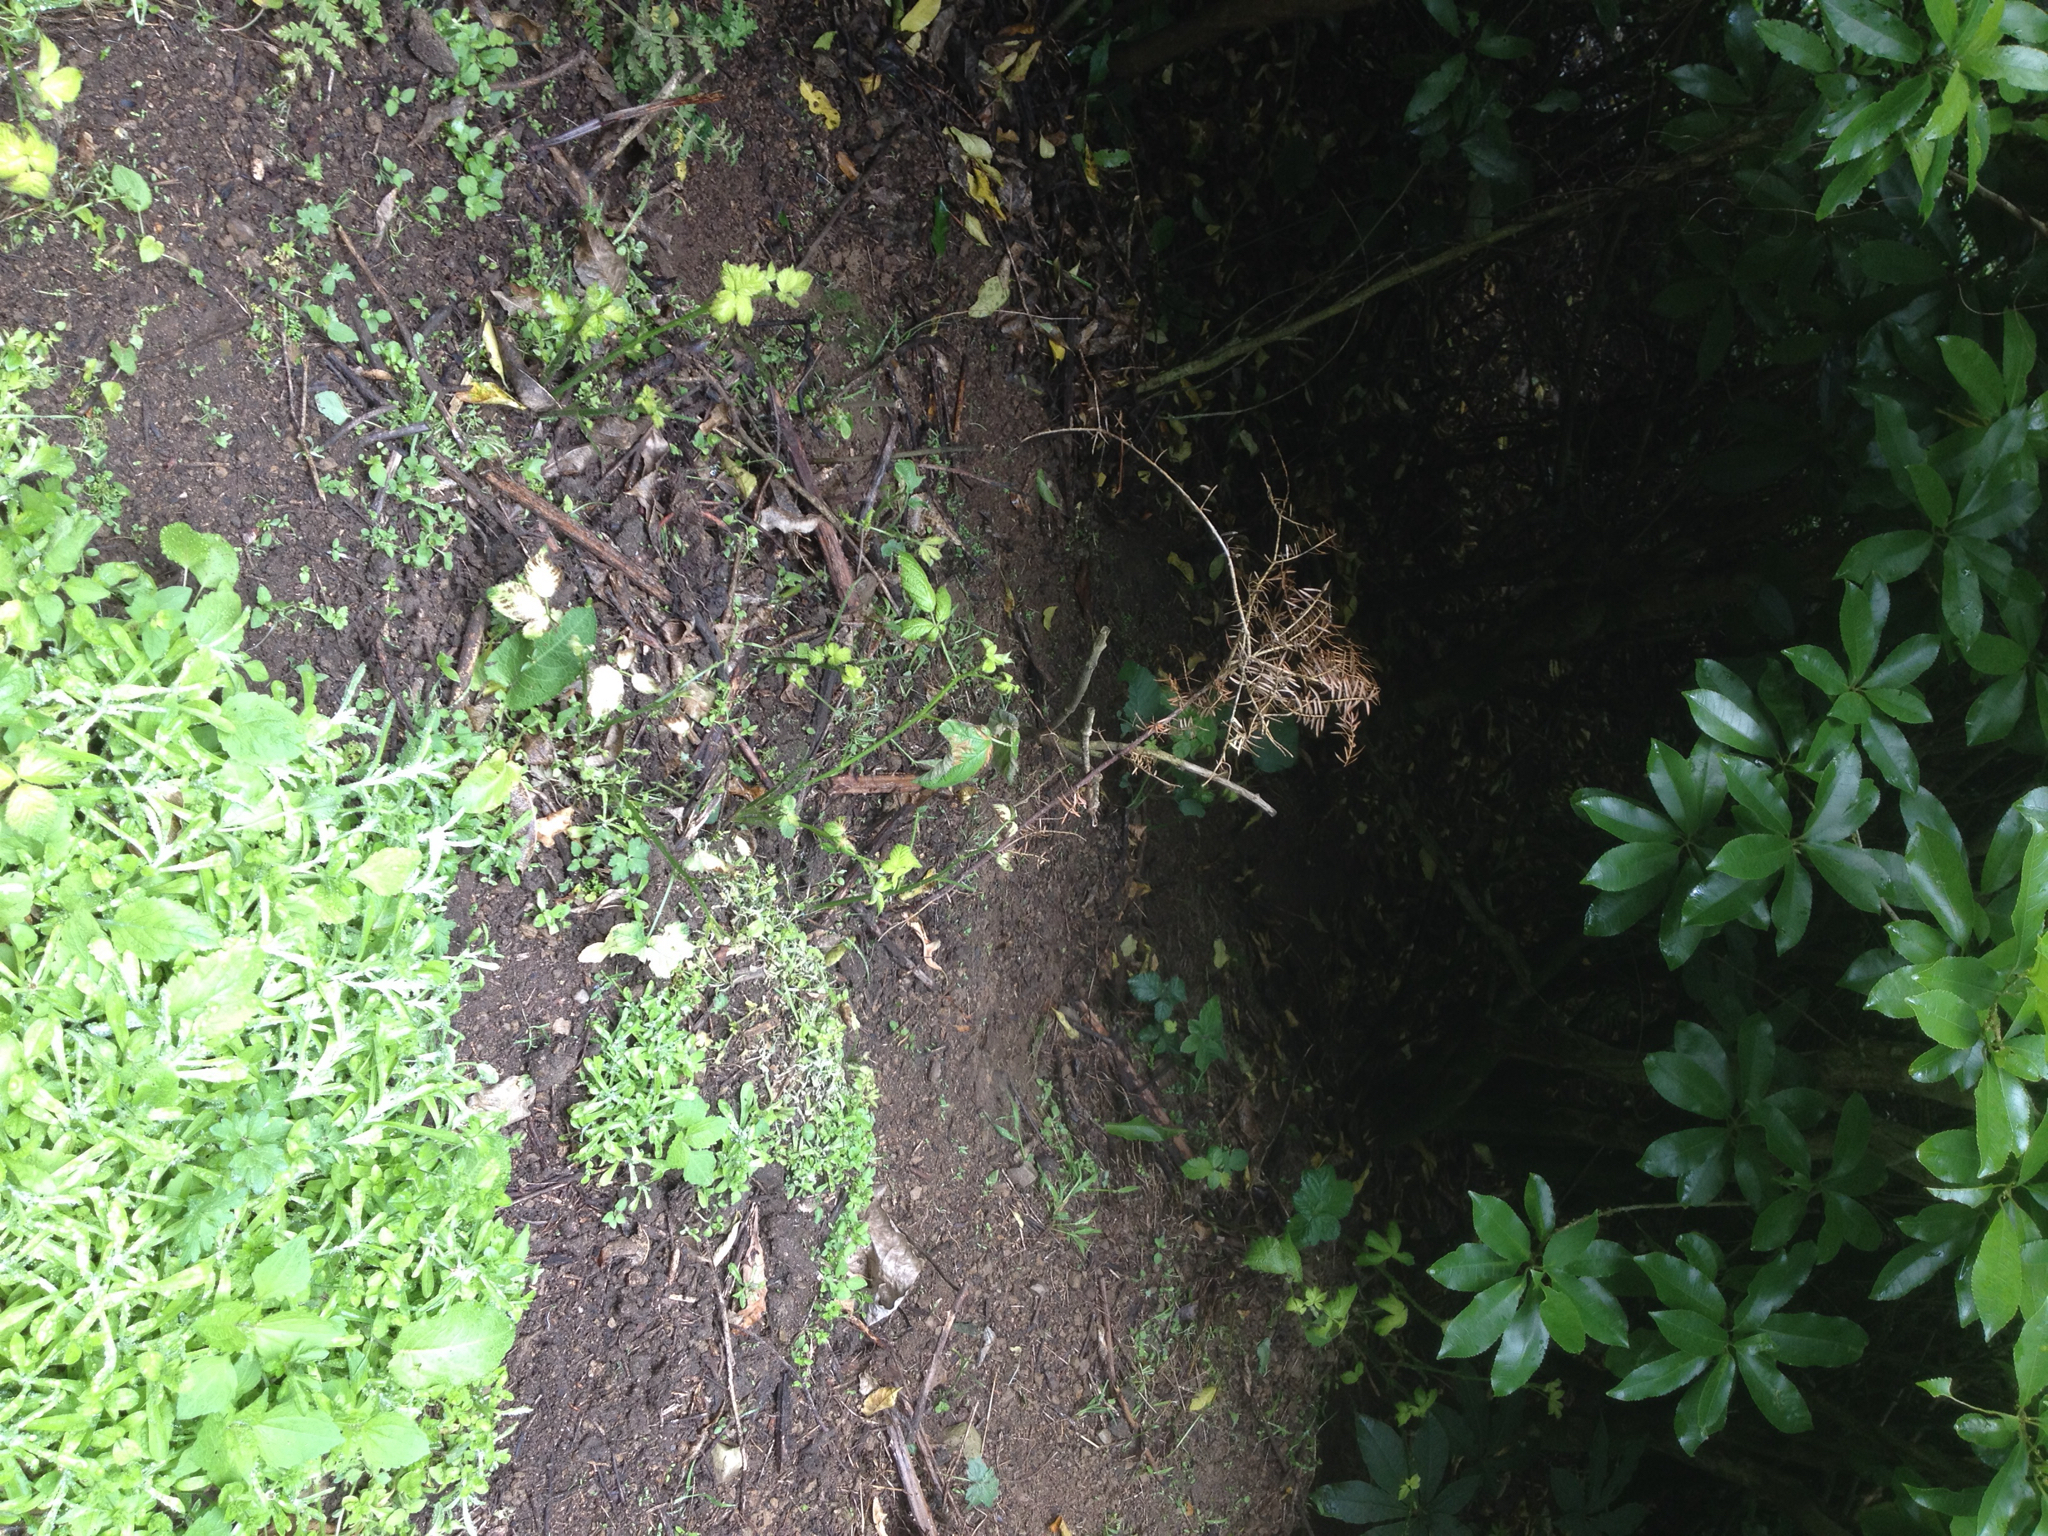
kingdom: Plantae
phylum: Tracheophyta
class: Pinopsida
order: Pinales
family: Podocarpaceae
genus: Podocarpus
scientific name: Podocarpus totara
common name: Totara
